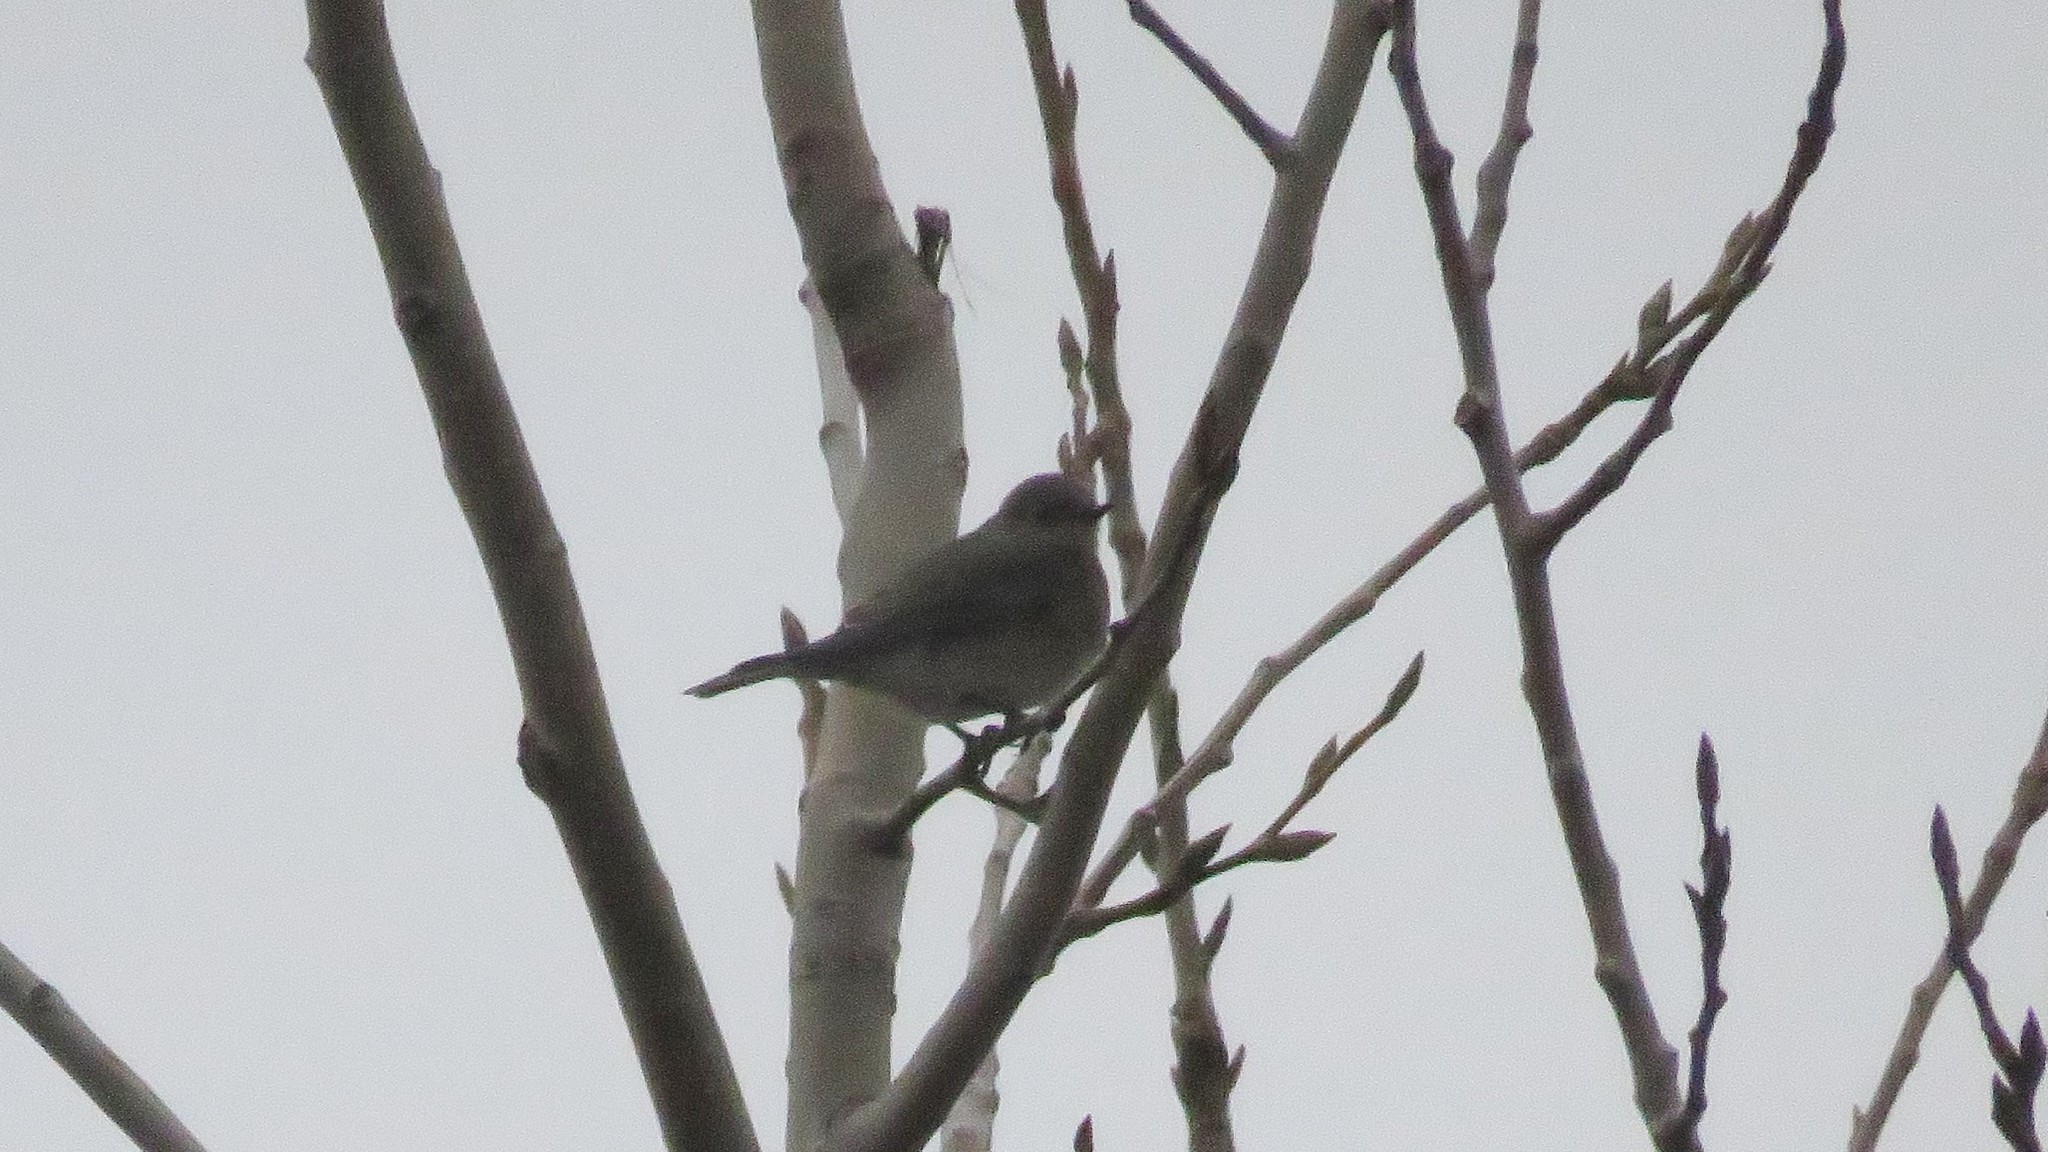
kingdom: Animalia
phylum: Chordata
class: Aves
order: Passeriformes
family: Turdidae
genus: Sialia
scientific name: Sialia currucoides
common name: Mountain bluebird
